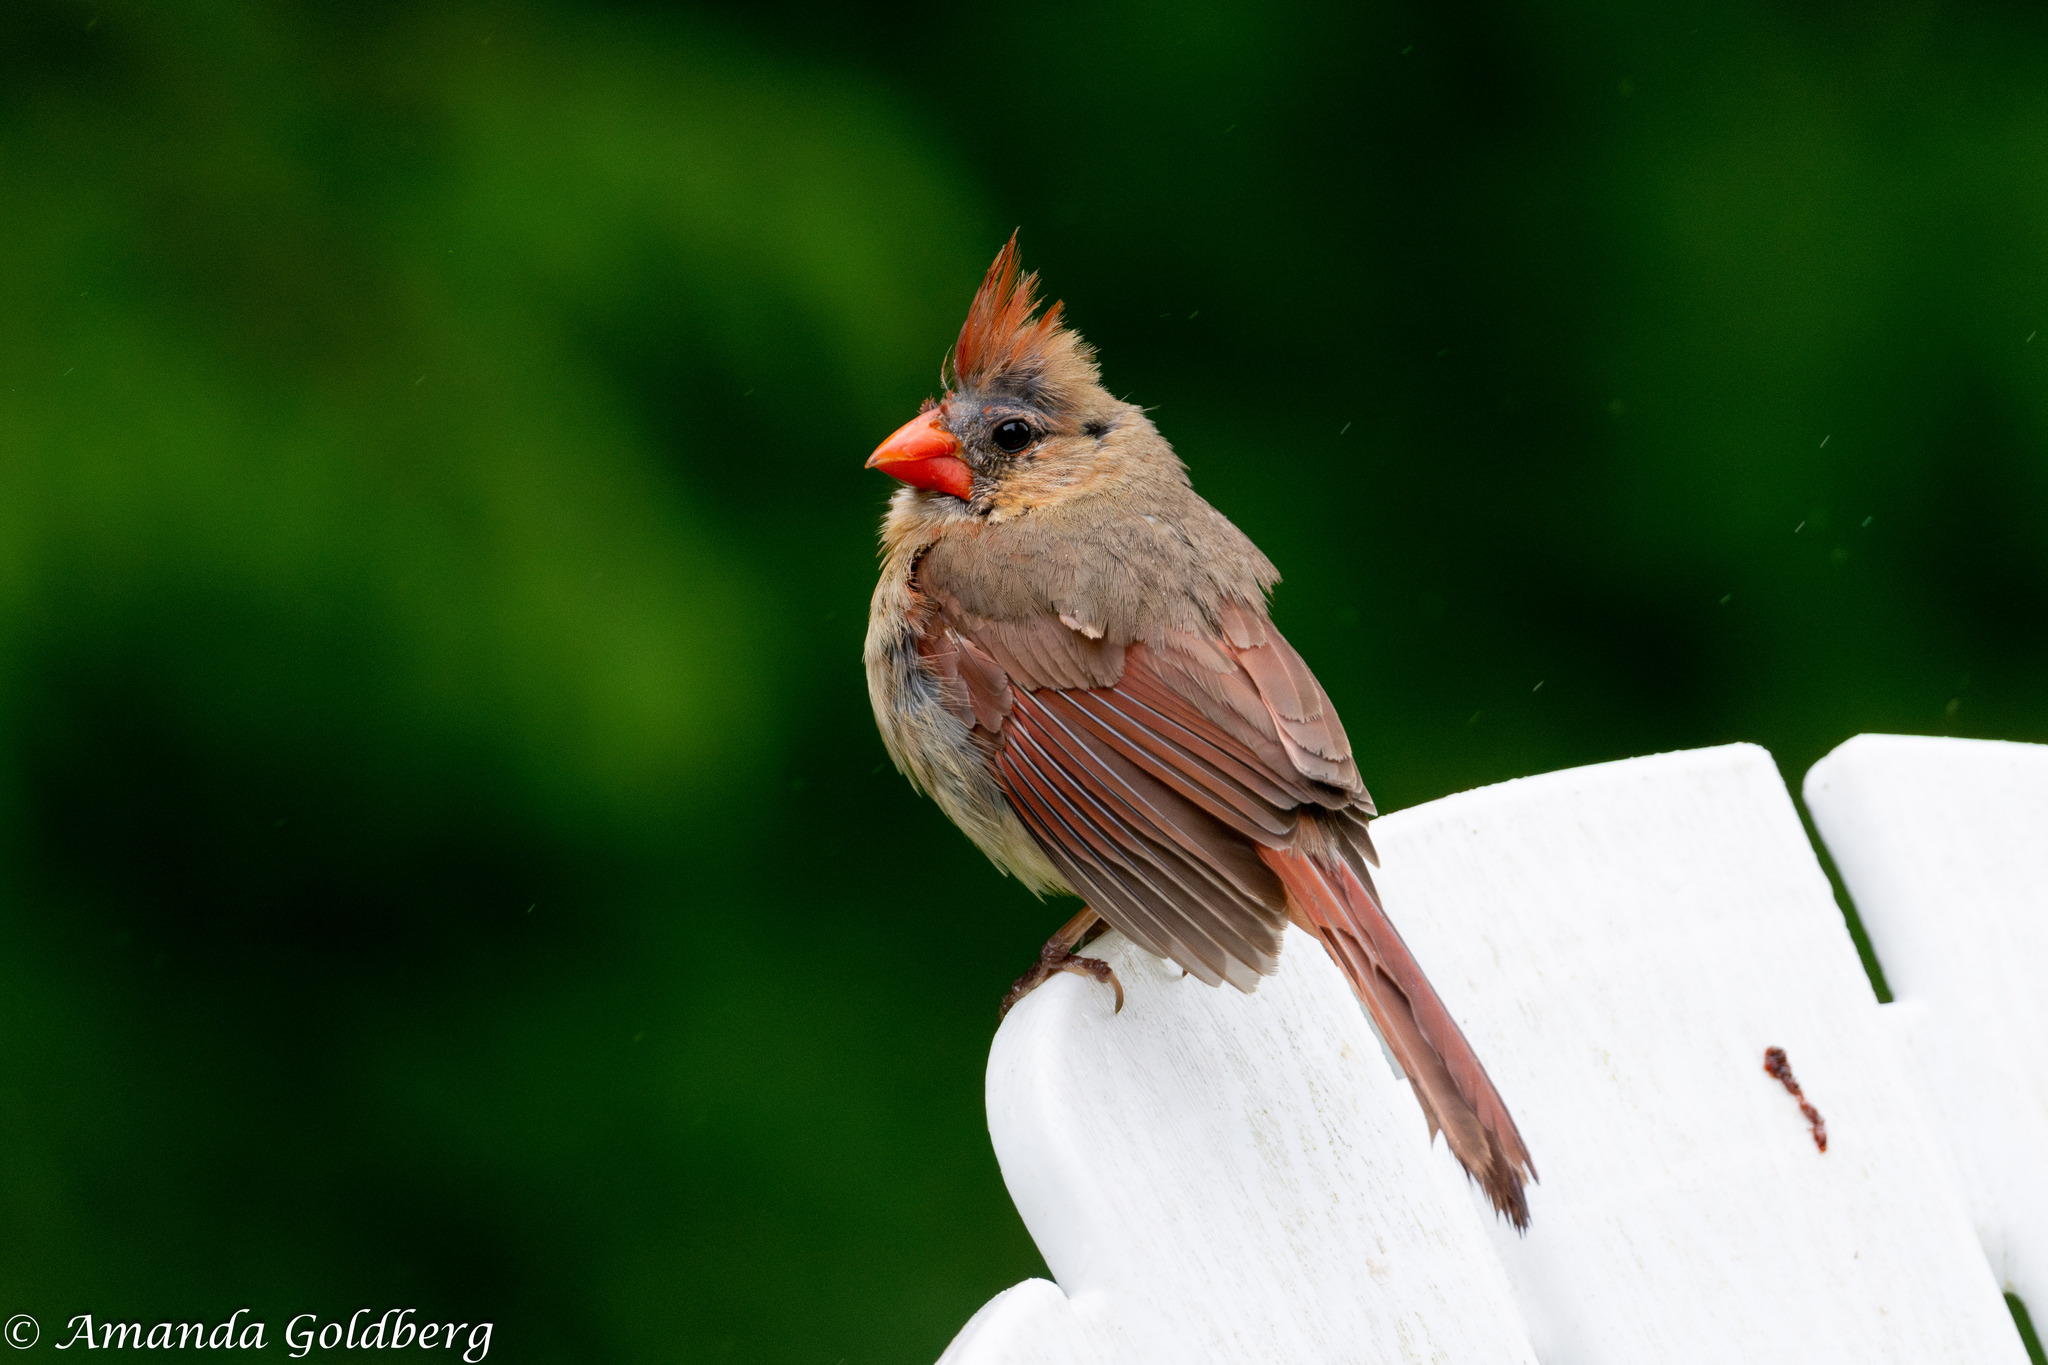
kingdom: Animalia
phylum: Chordata
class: Aves
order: Passeriformes
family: Cardinalidae
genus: Cardinalis
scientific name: Cardinalis cardinalis
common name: Northern cardinal
